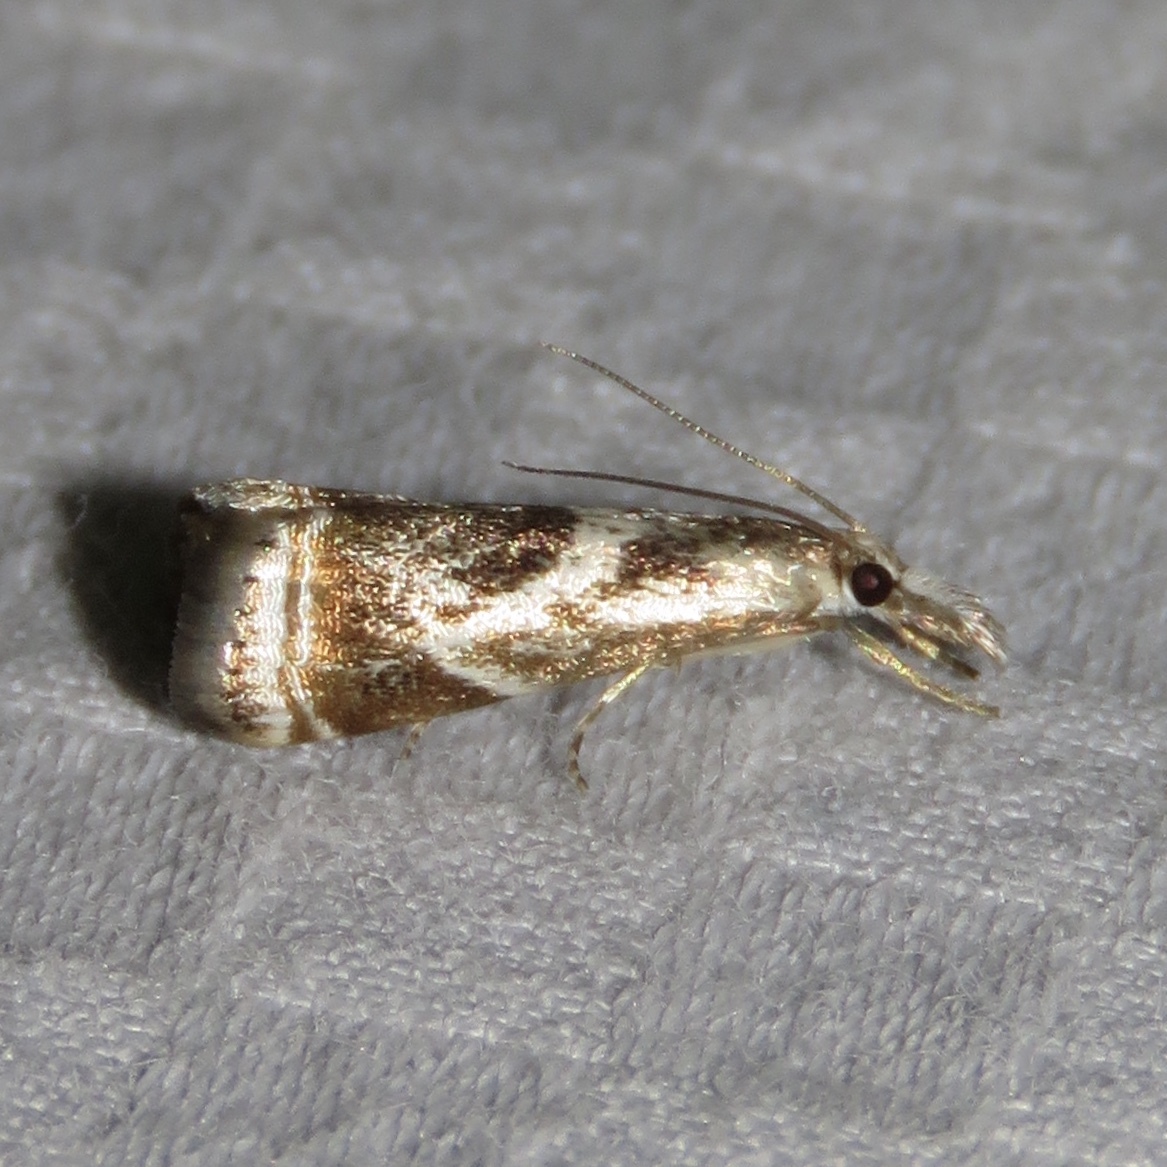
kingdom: Animalia
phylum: Arthropoda
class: Insecta
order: Lepidoptera
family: Crambidae
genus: Microcrambus
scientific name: Microcrambus elegans
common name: Elegant grass-veneer
